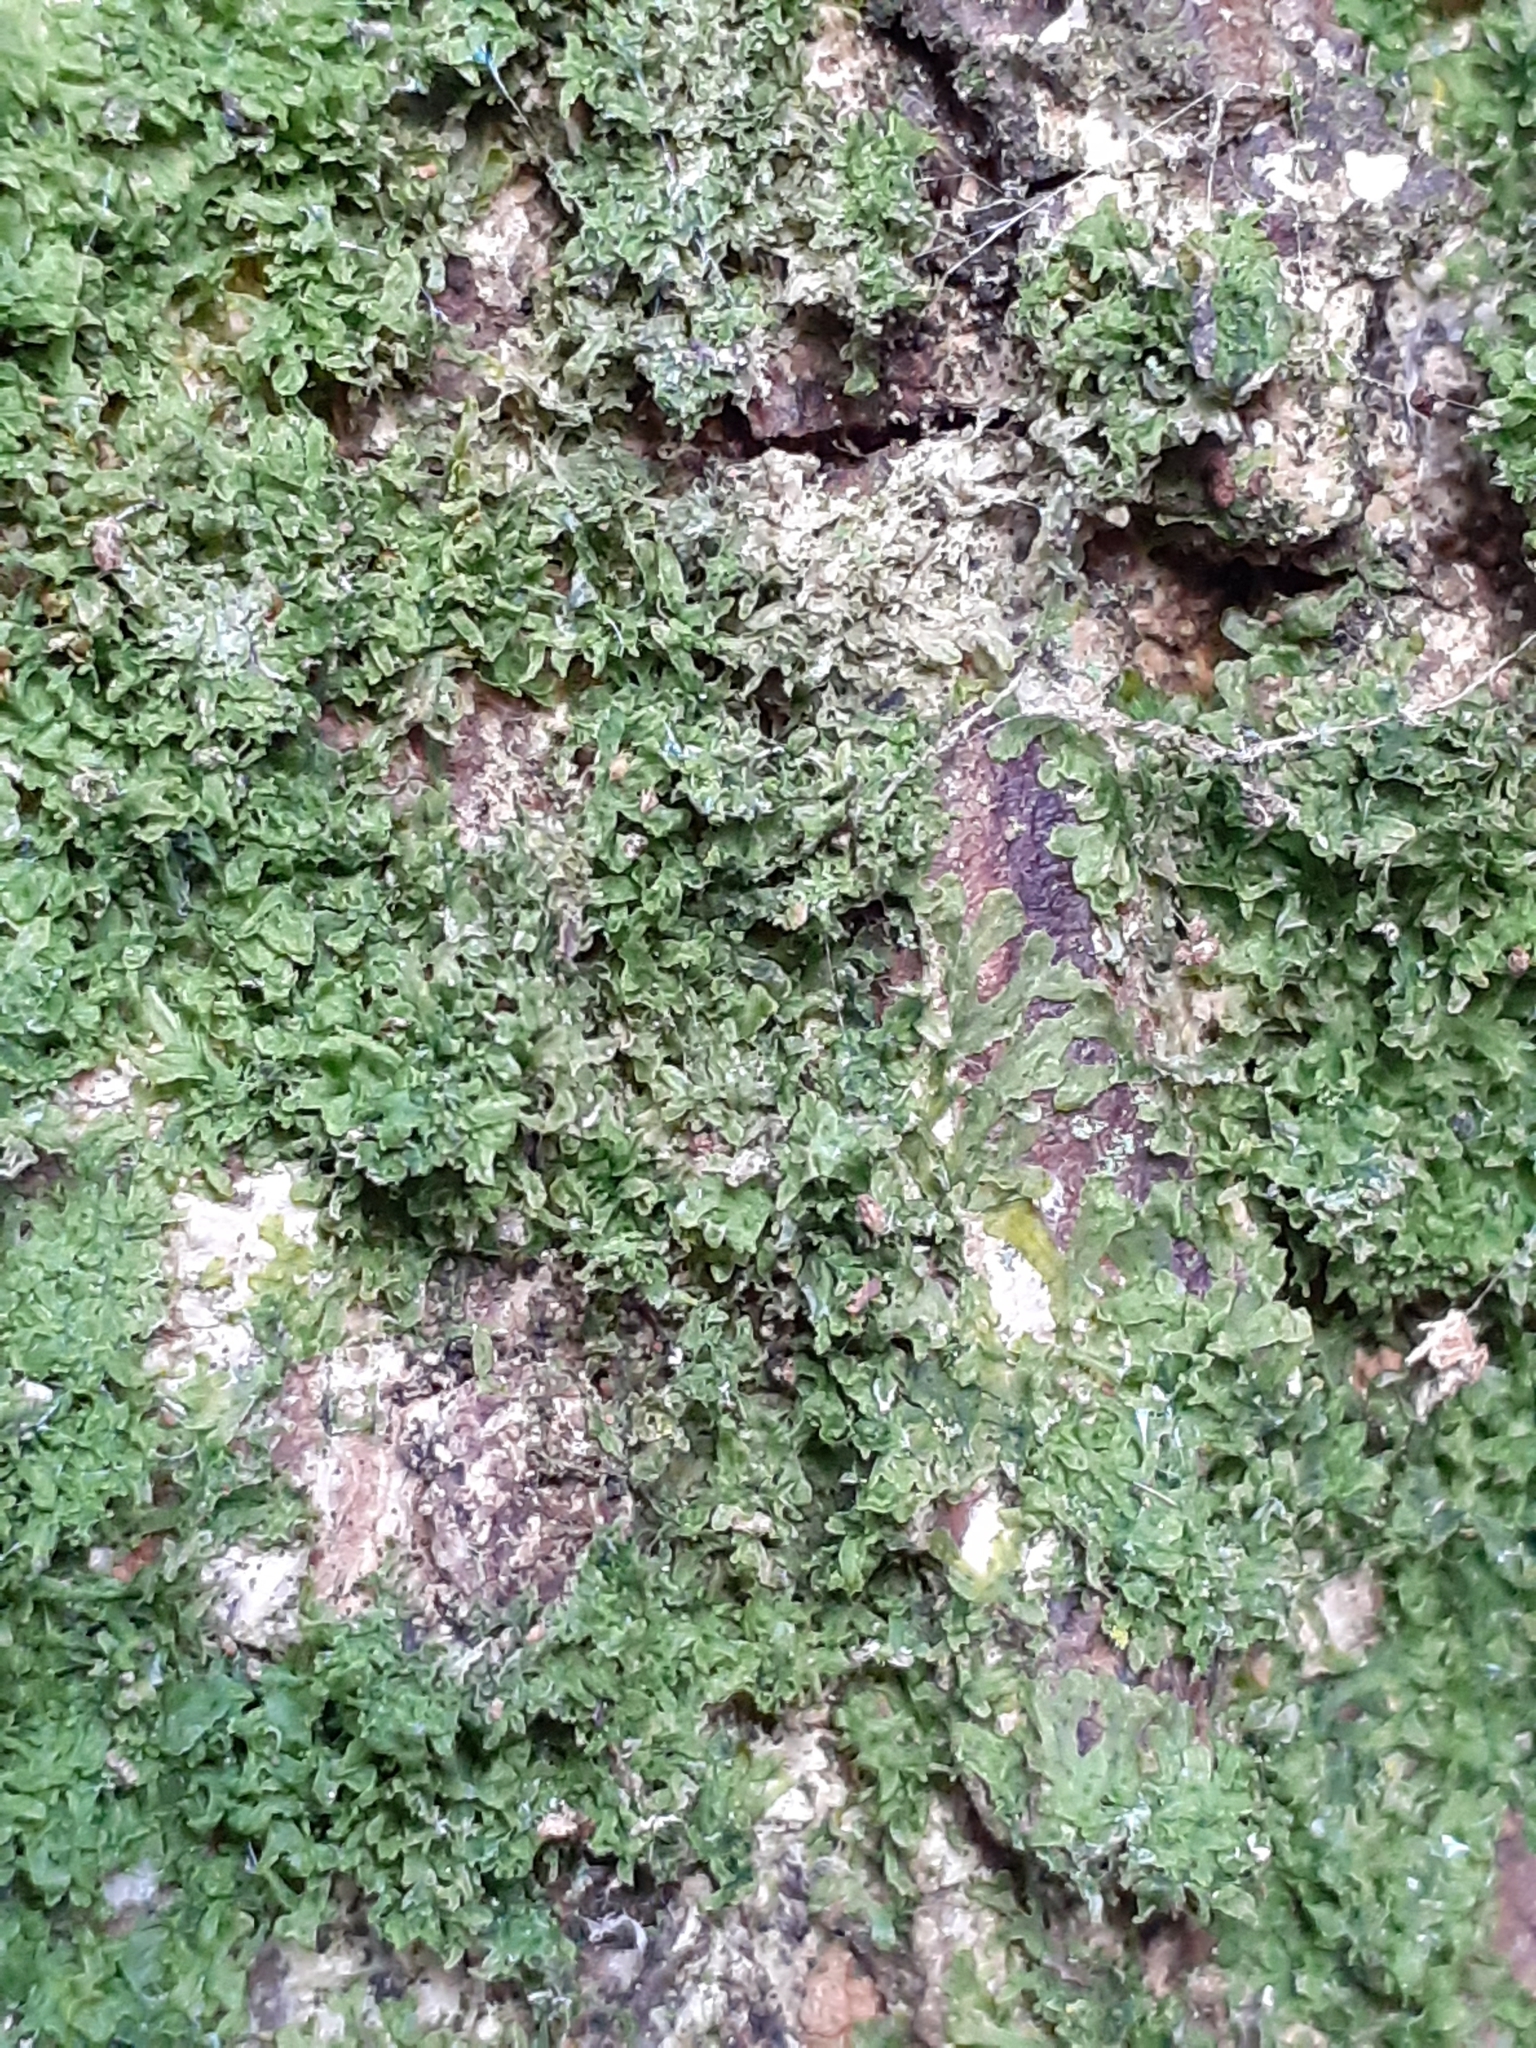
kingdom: Plantae
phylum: Marchantiophyta
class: Jungermanniopsida
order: Metzgeriales
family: Metzgeriaceae
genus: Metzgeria
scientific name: Metzgeria furcata
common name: Forked veilwort
